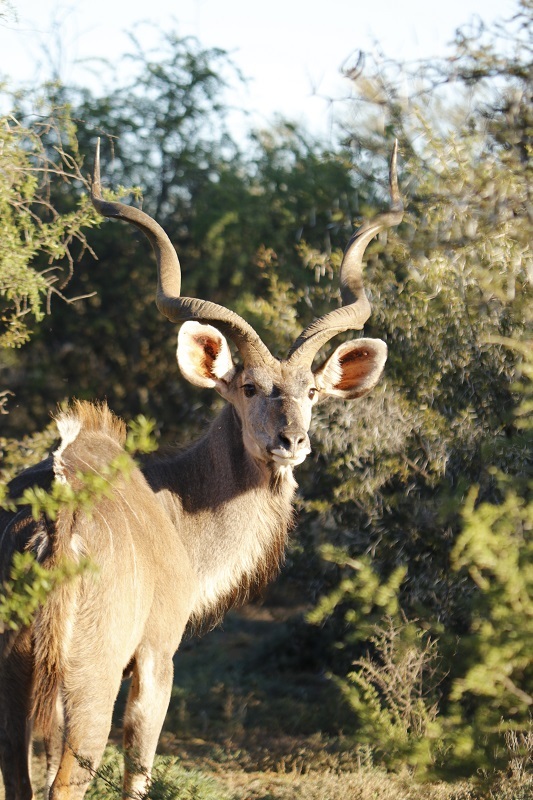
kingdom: Animalia
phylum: Chordata
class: Mammalia
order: Artiodactyla
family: Bovidae
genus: Tragelaphus
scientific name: Tragelaphus strepsiceros
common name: Greater kudu
